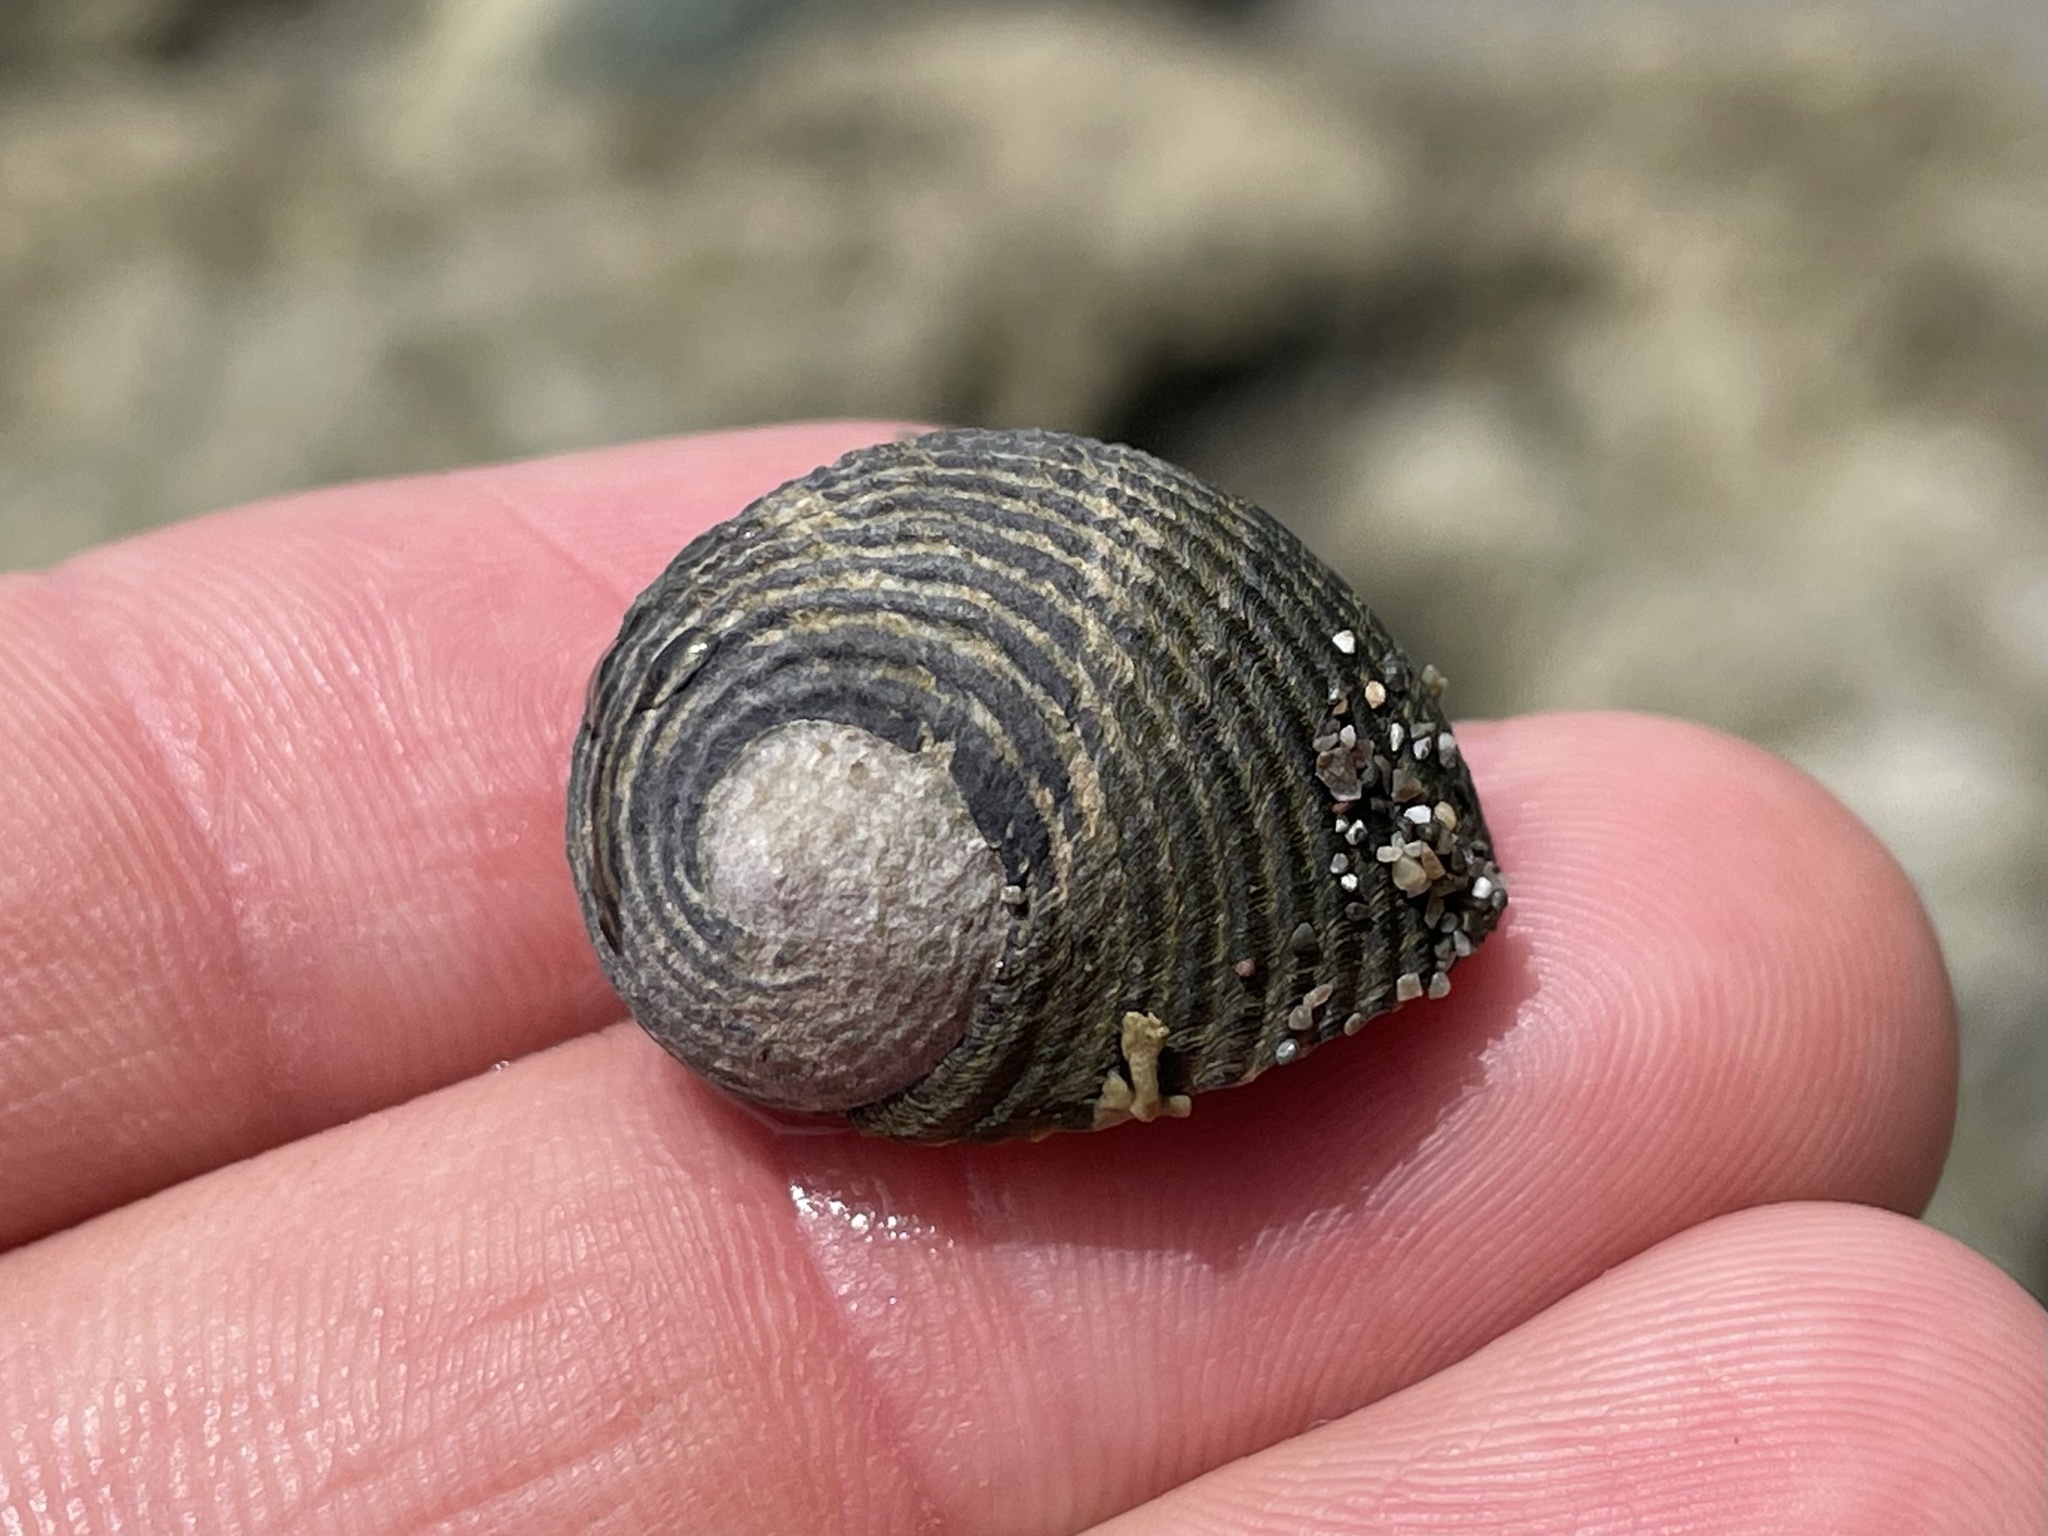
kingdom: Animalia
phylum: Mollusca
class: Gastropoda
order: Cycloneritida
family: Neritidae
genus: Nerita
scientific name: Nerita scabricosta
